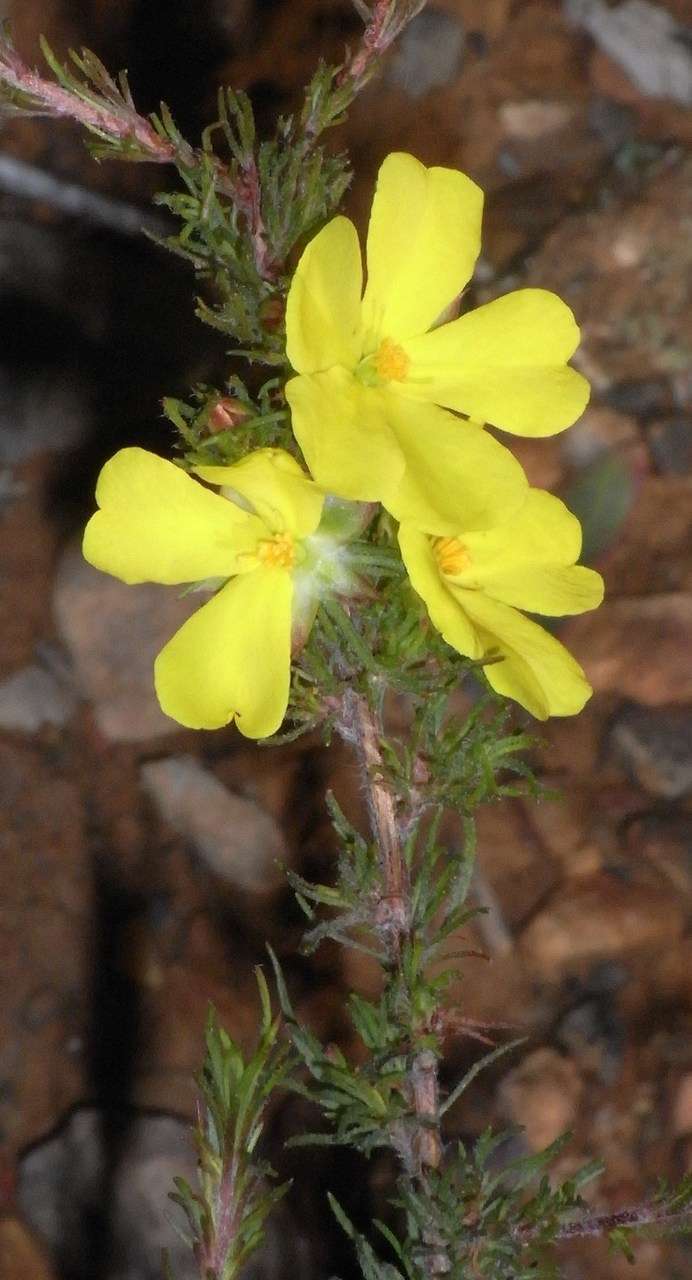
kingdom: Plantae
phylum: Tracheophyta
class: Magnoliopsida
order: Dilleniales
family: Dilleniaceae
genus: Hibbertia
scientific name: Hibbertia prostrata
